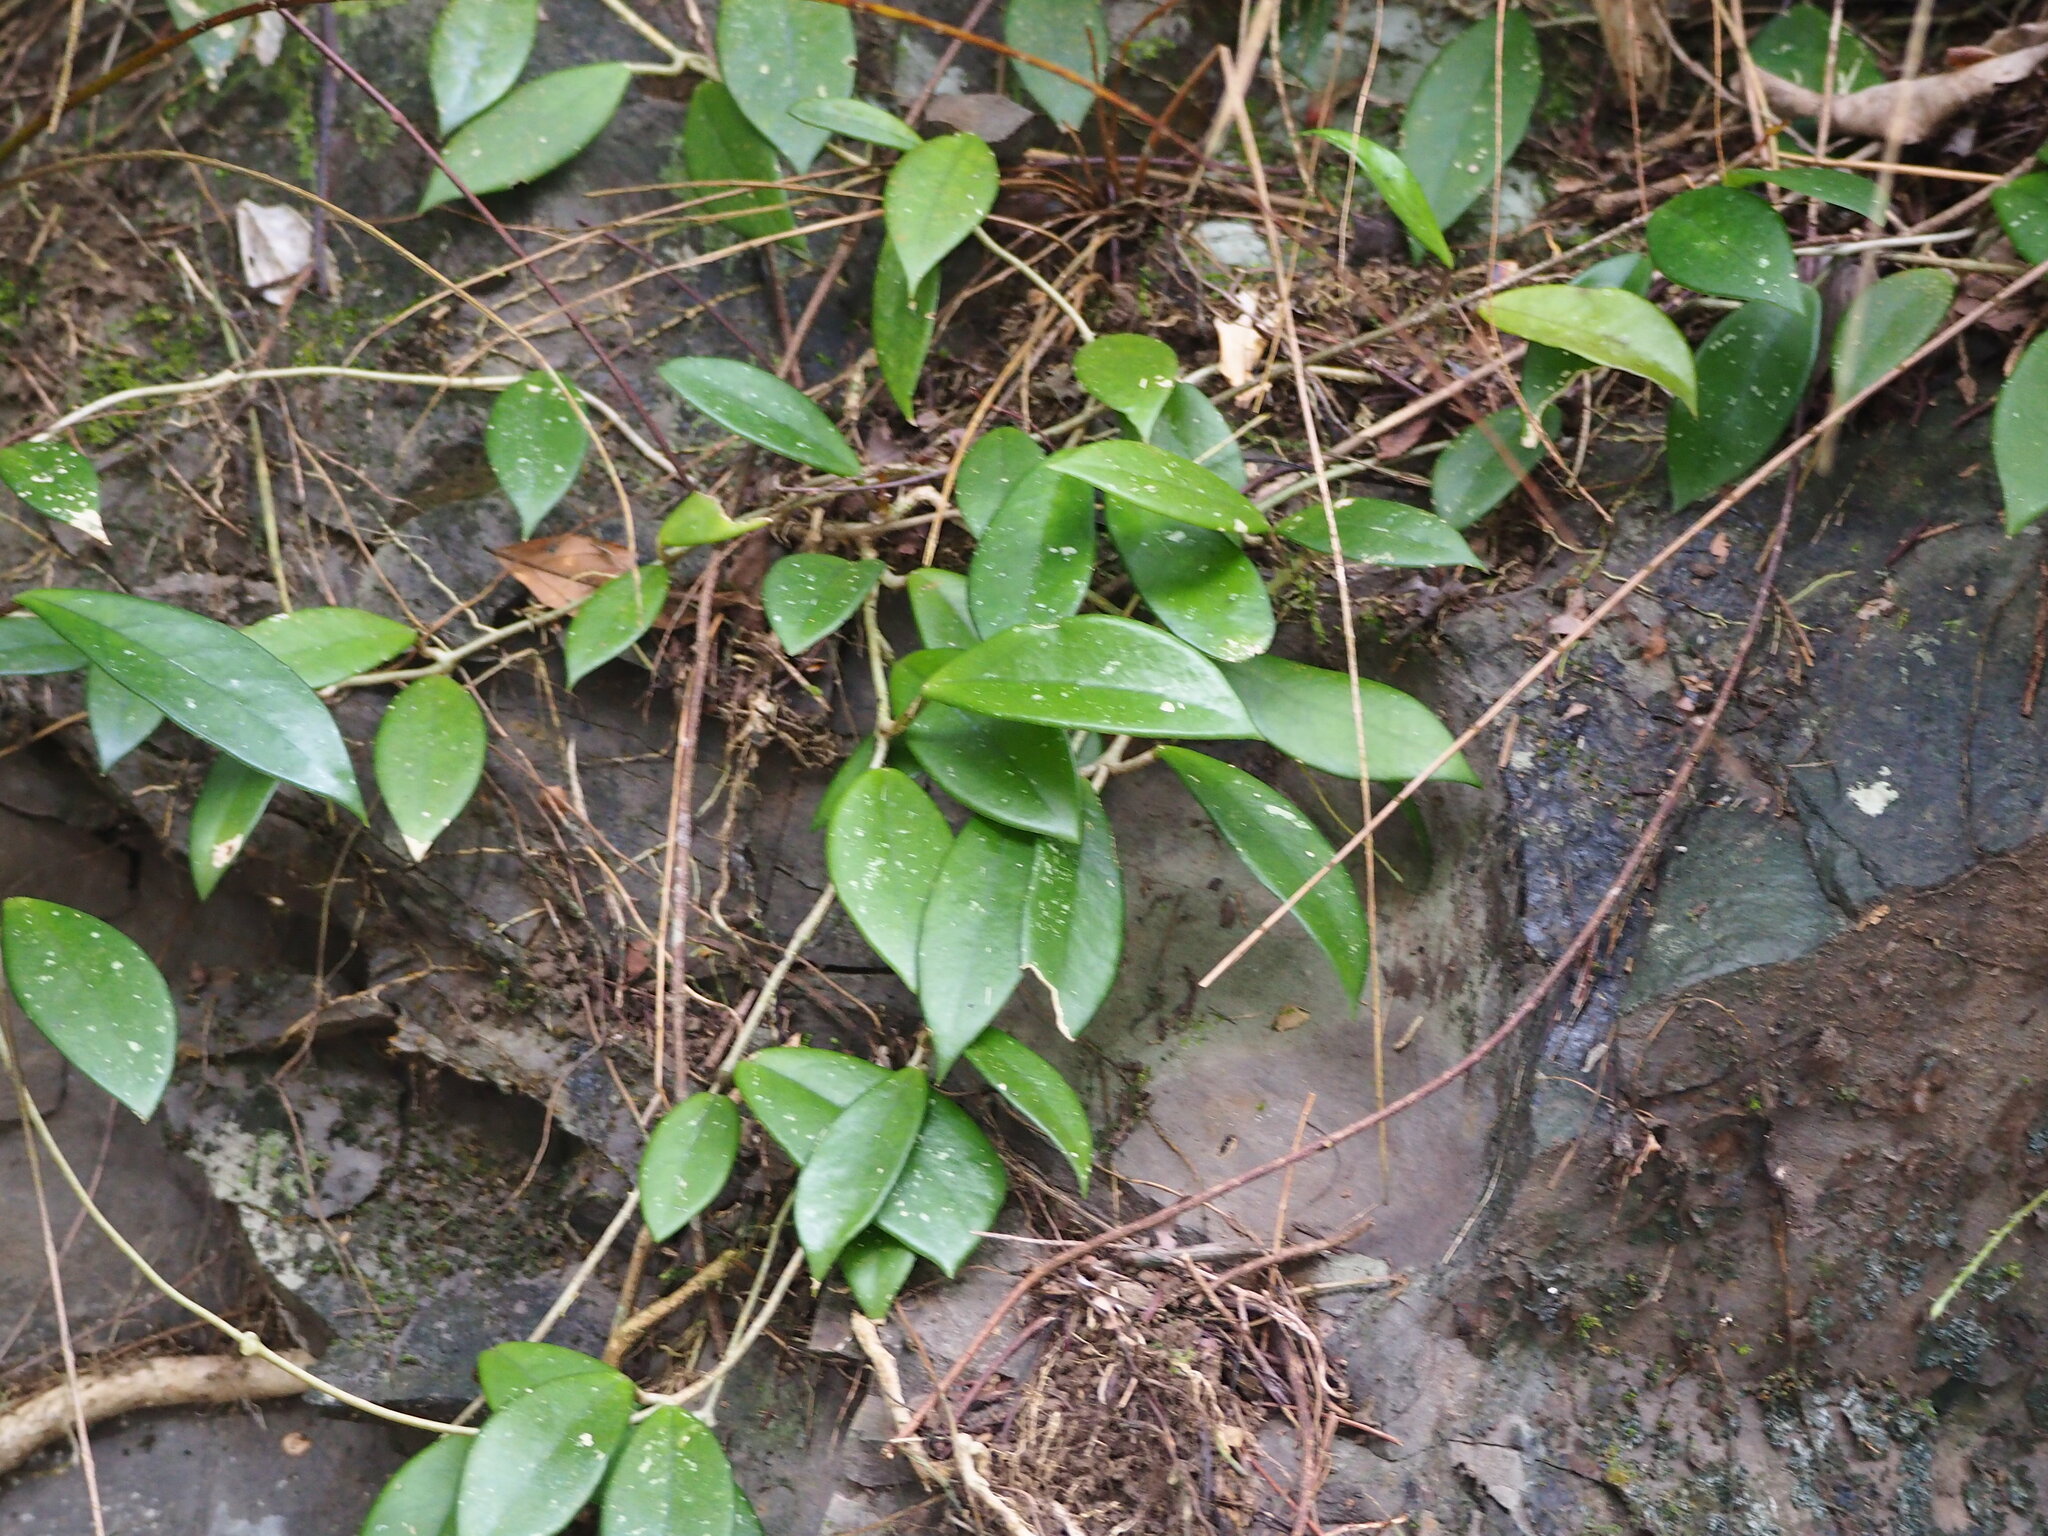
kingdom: Plantae
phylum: Tracheophyta
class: Magnoliopsida
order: Gentianales
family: Apocynaceae
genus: Hoya
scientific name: Hoya carnosa
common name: Honeyplant
